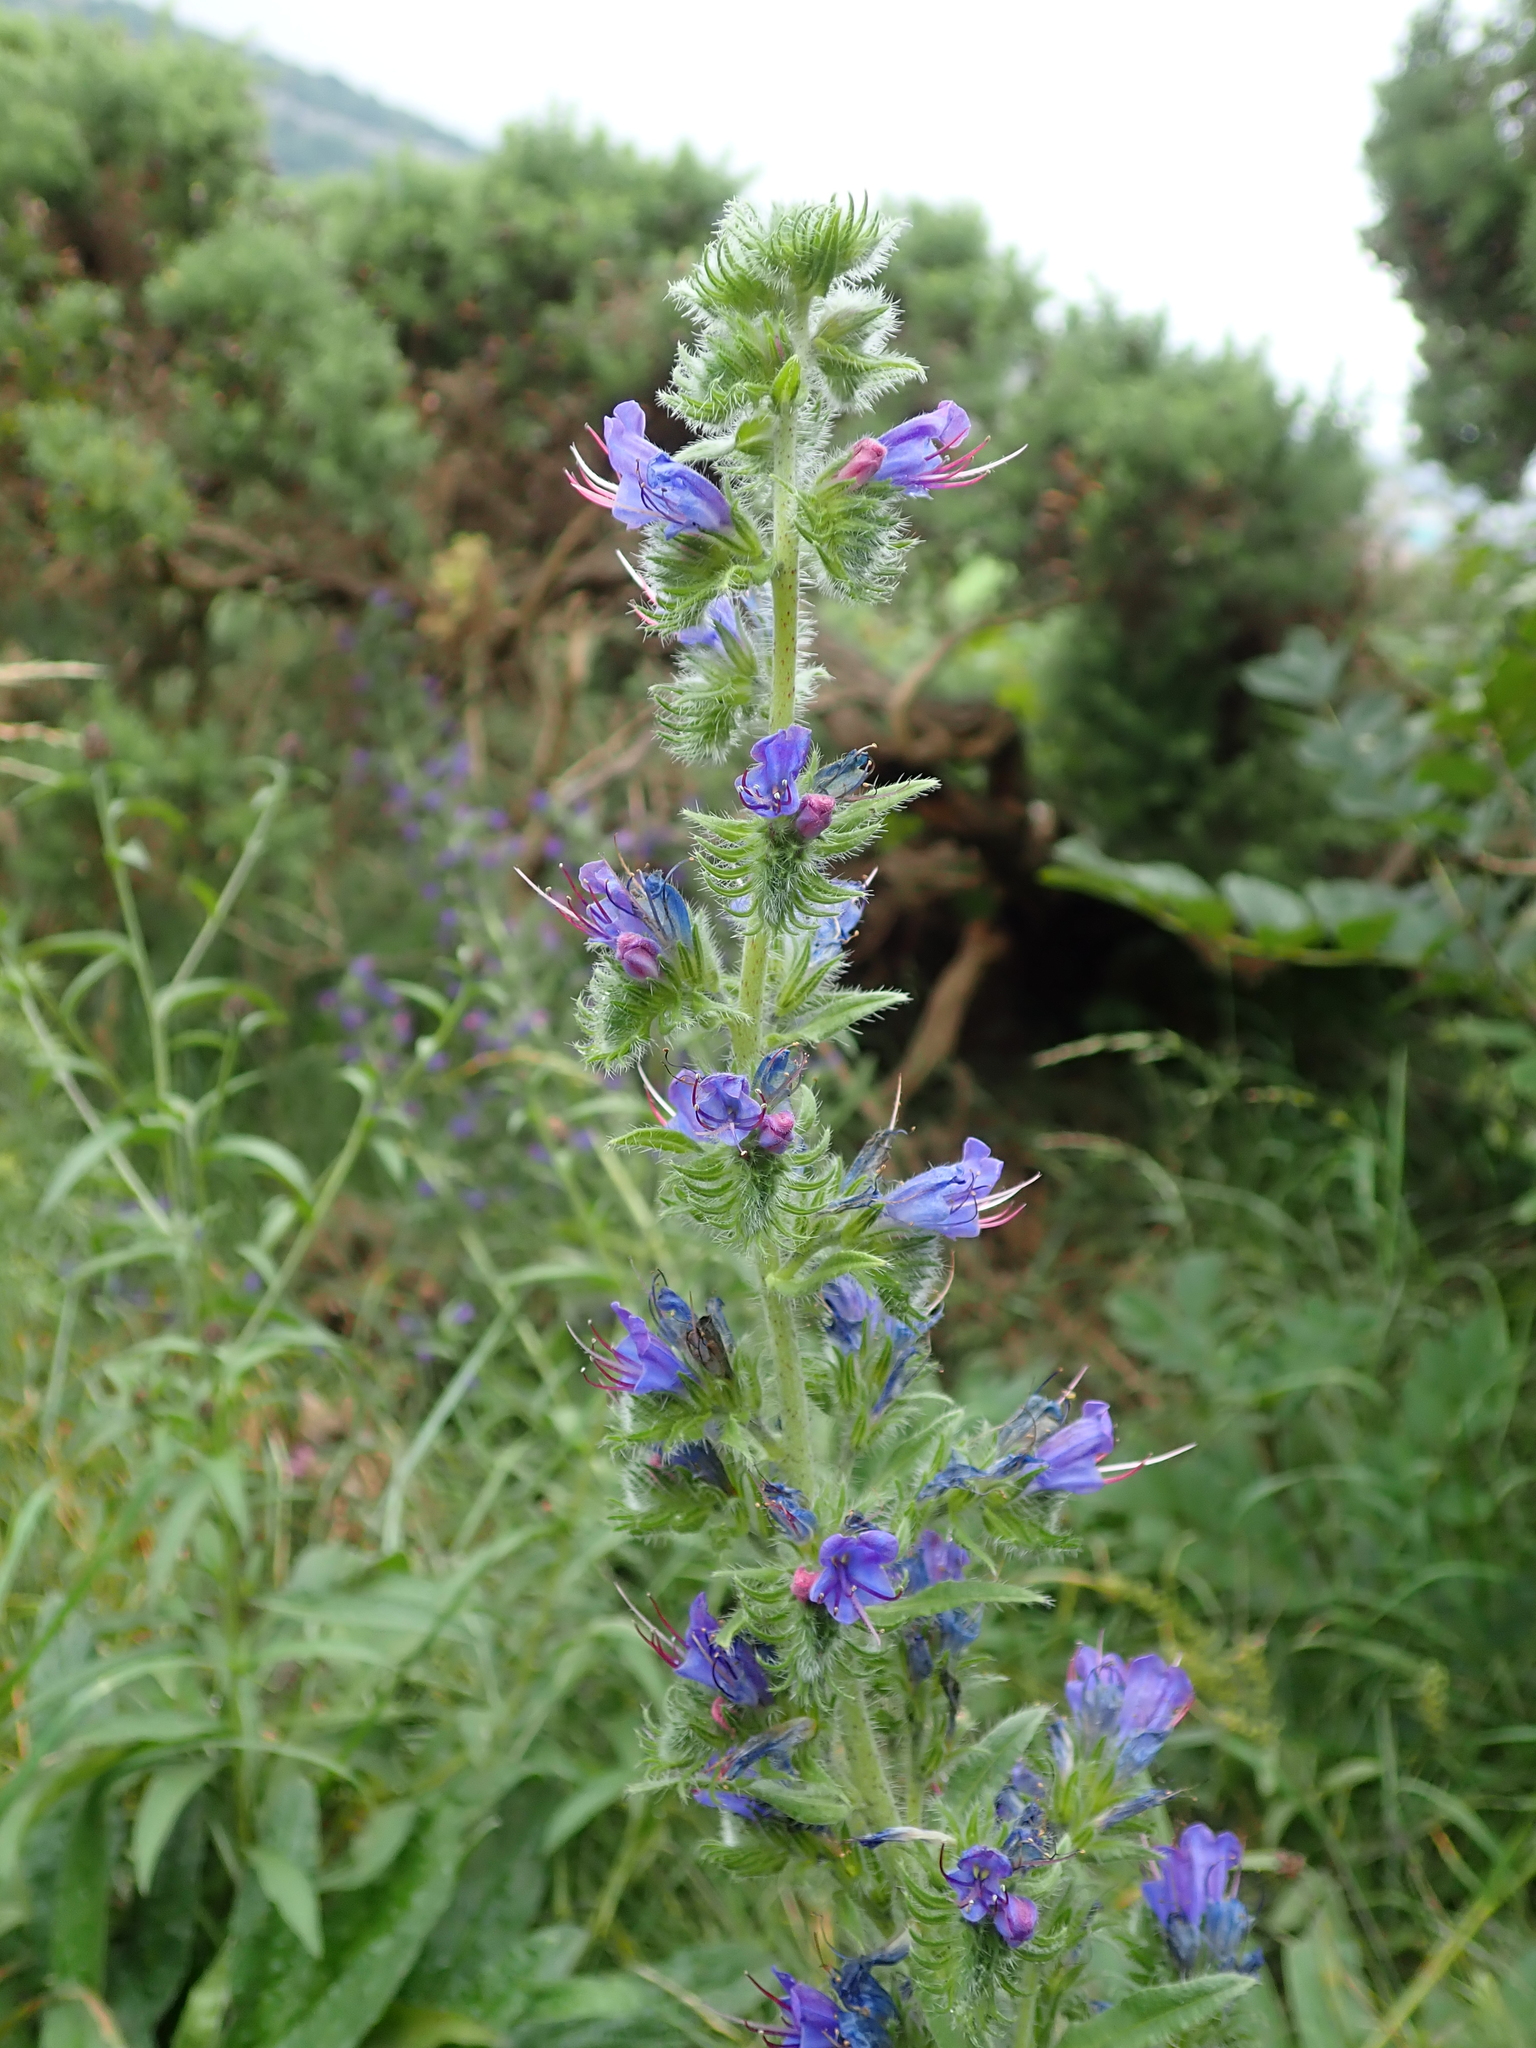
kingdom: Plantae
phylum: Tracheophyta
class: Magnoliopsida
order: Boraginales
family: Boraginaceae
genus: Echium
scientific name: Echium vulgare
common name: Common viper's bugloss
